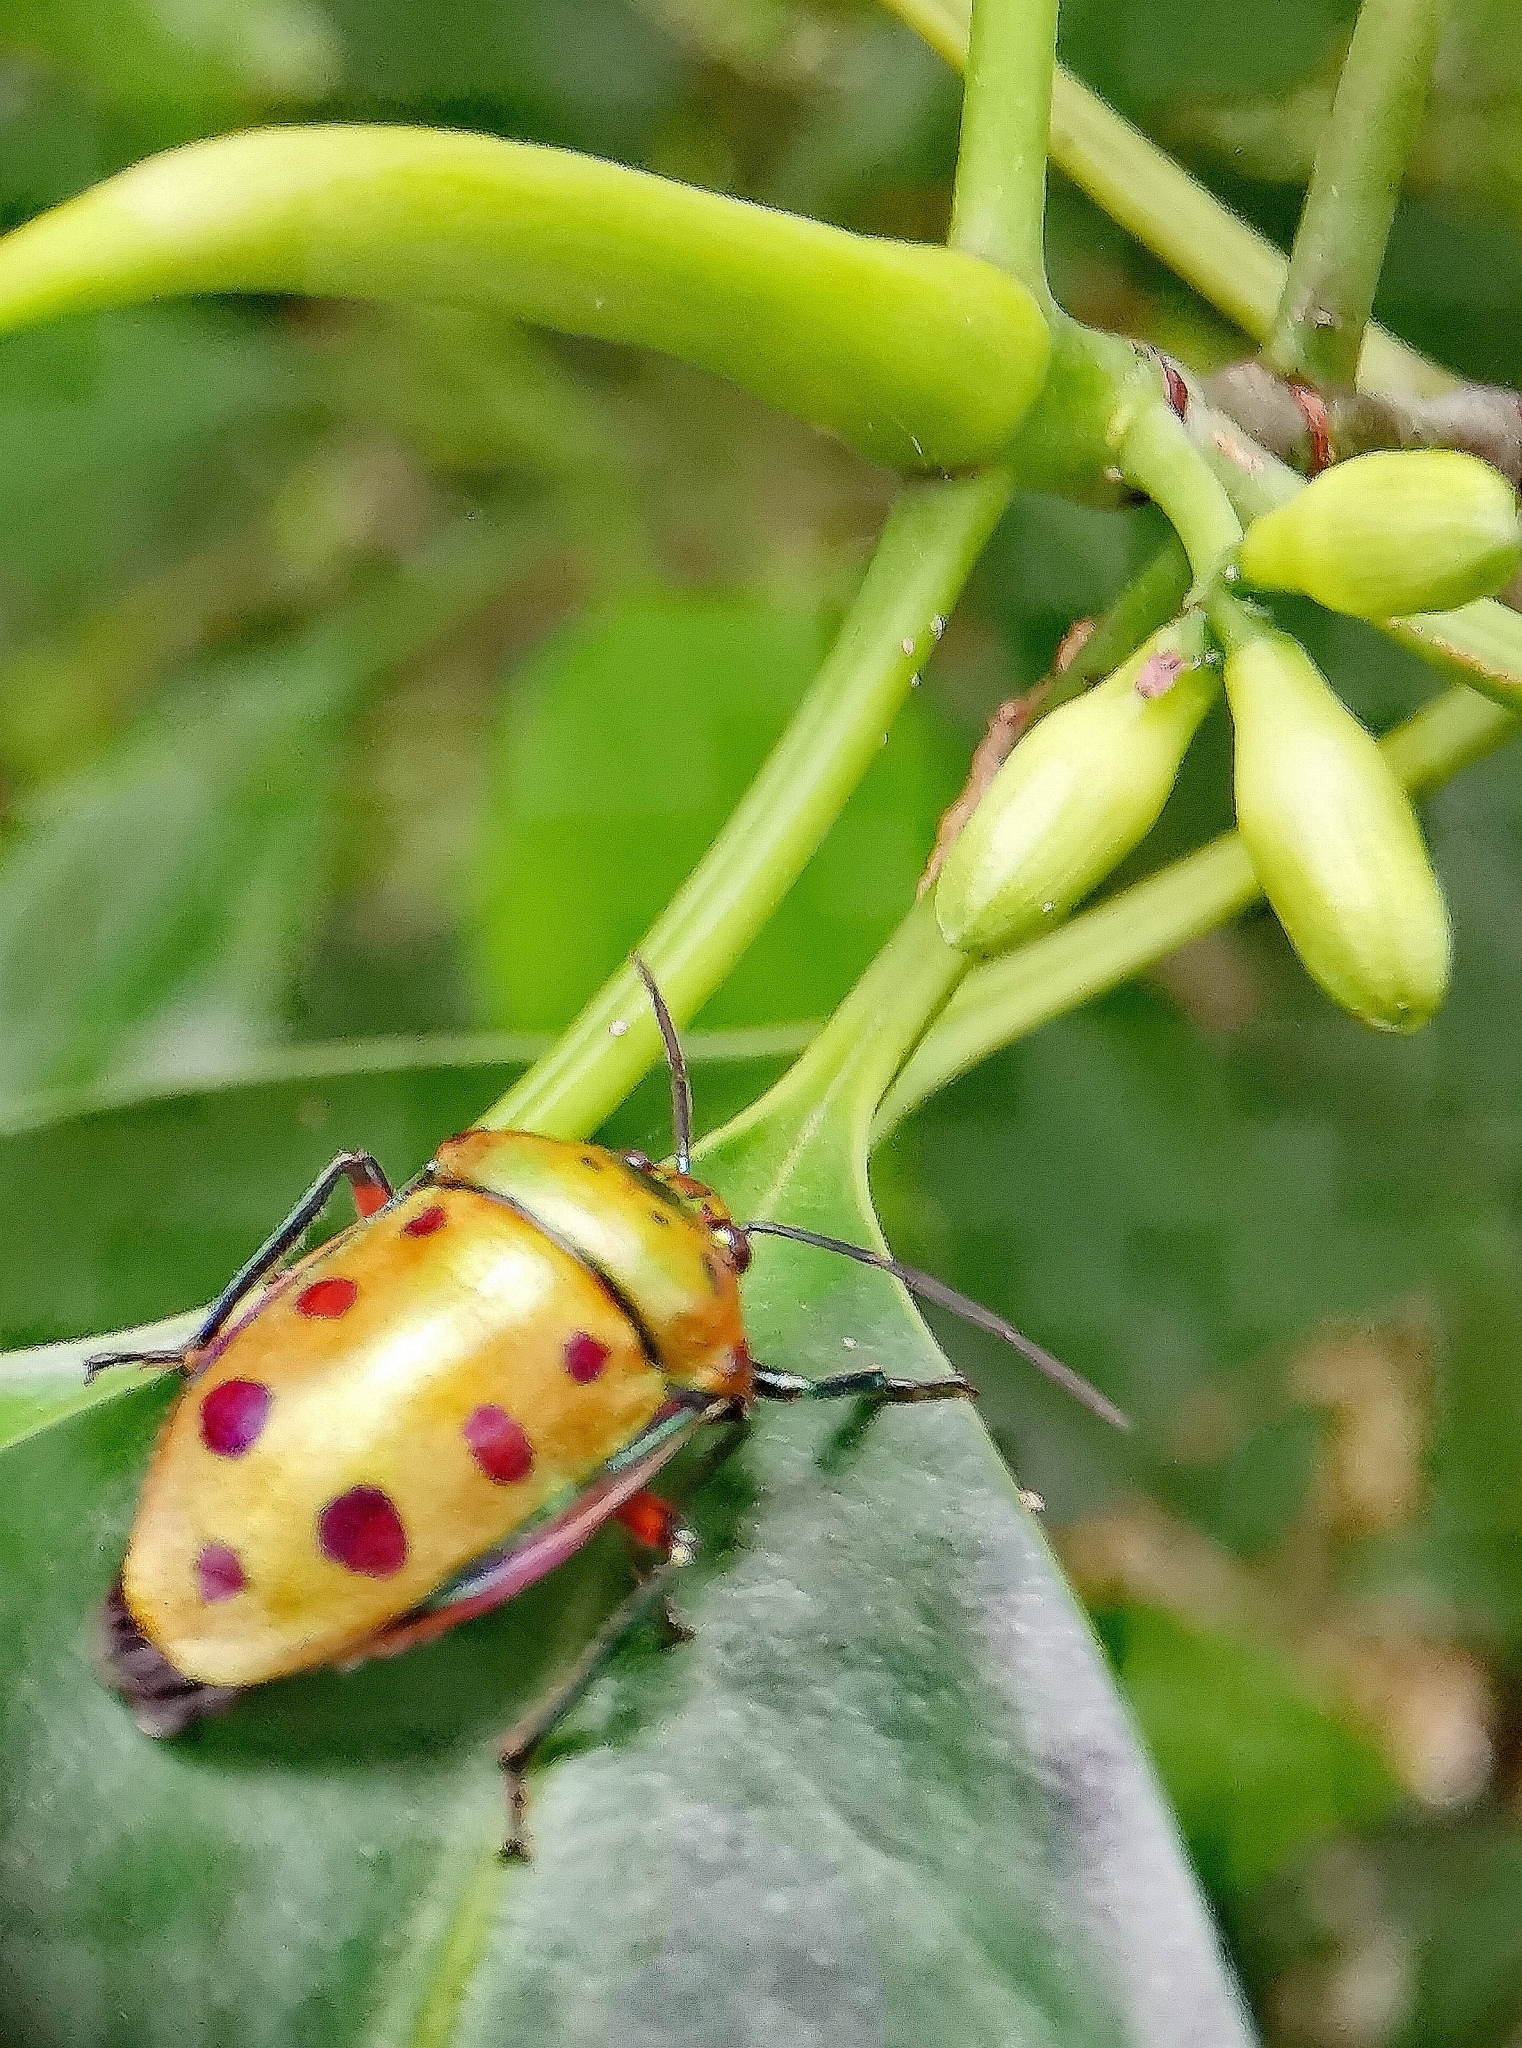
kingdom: Animalia
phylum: Arthropoda
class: Insecta
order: Hemiptera
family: Scutelleridae
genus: Calliphara
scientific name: Calliphara nobilis
